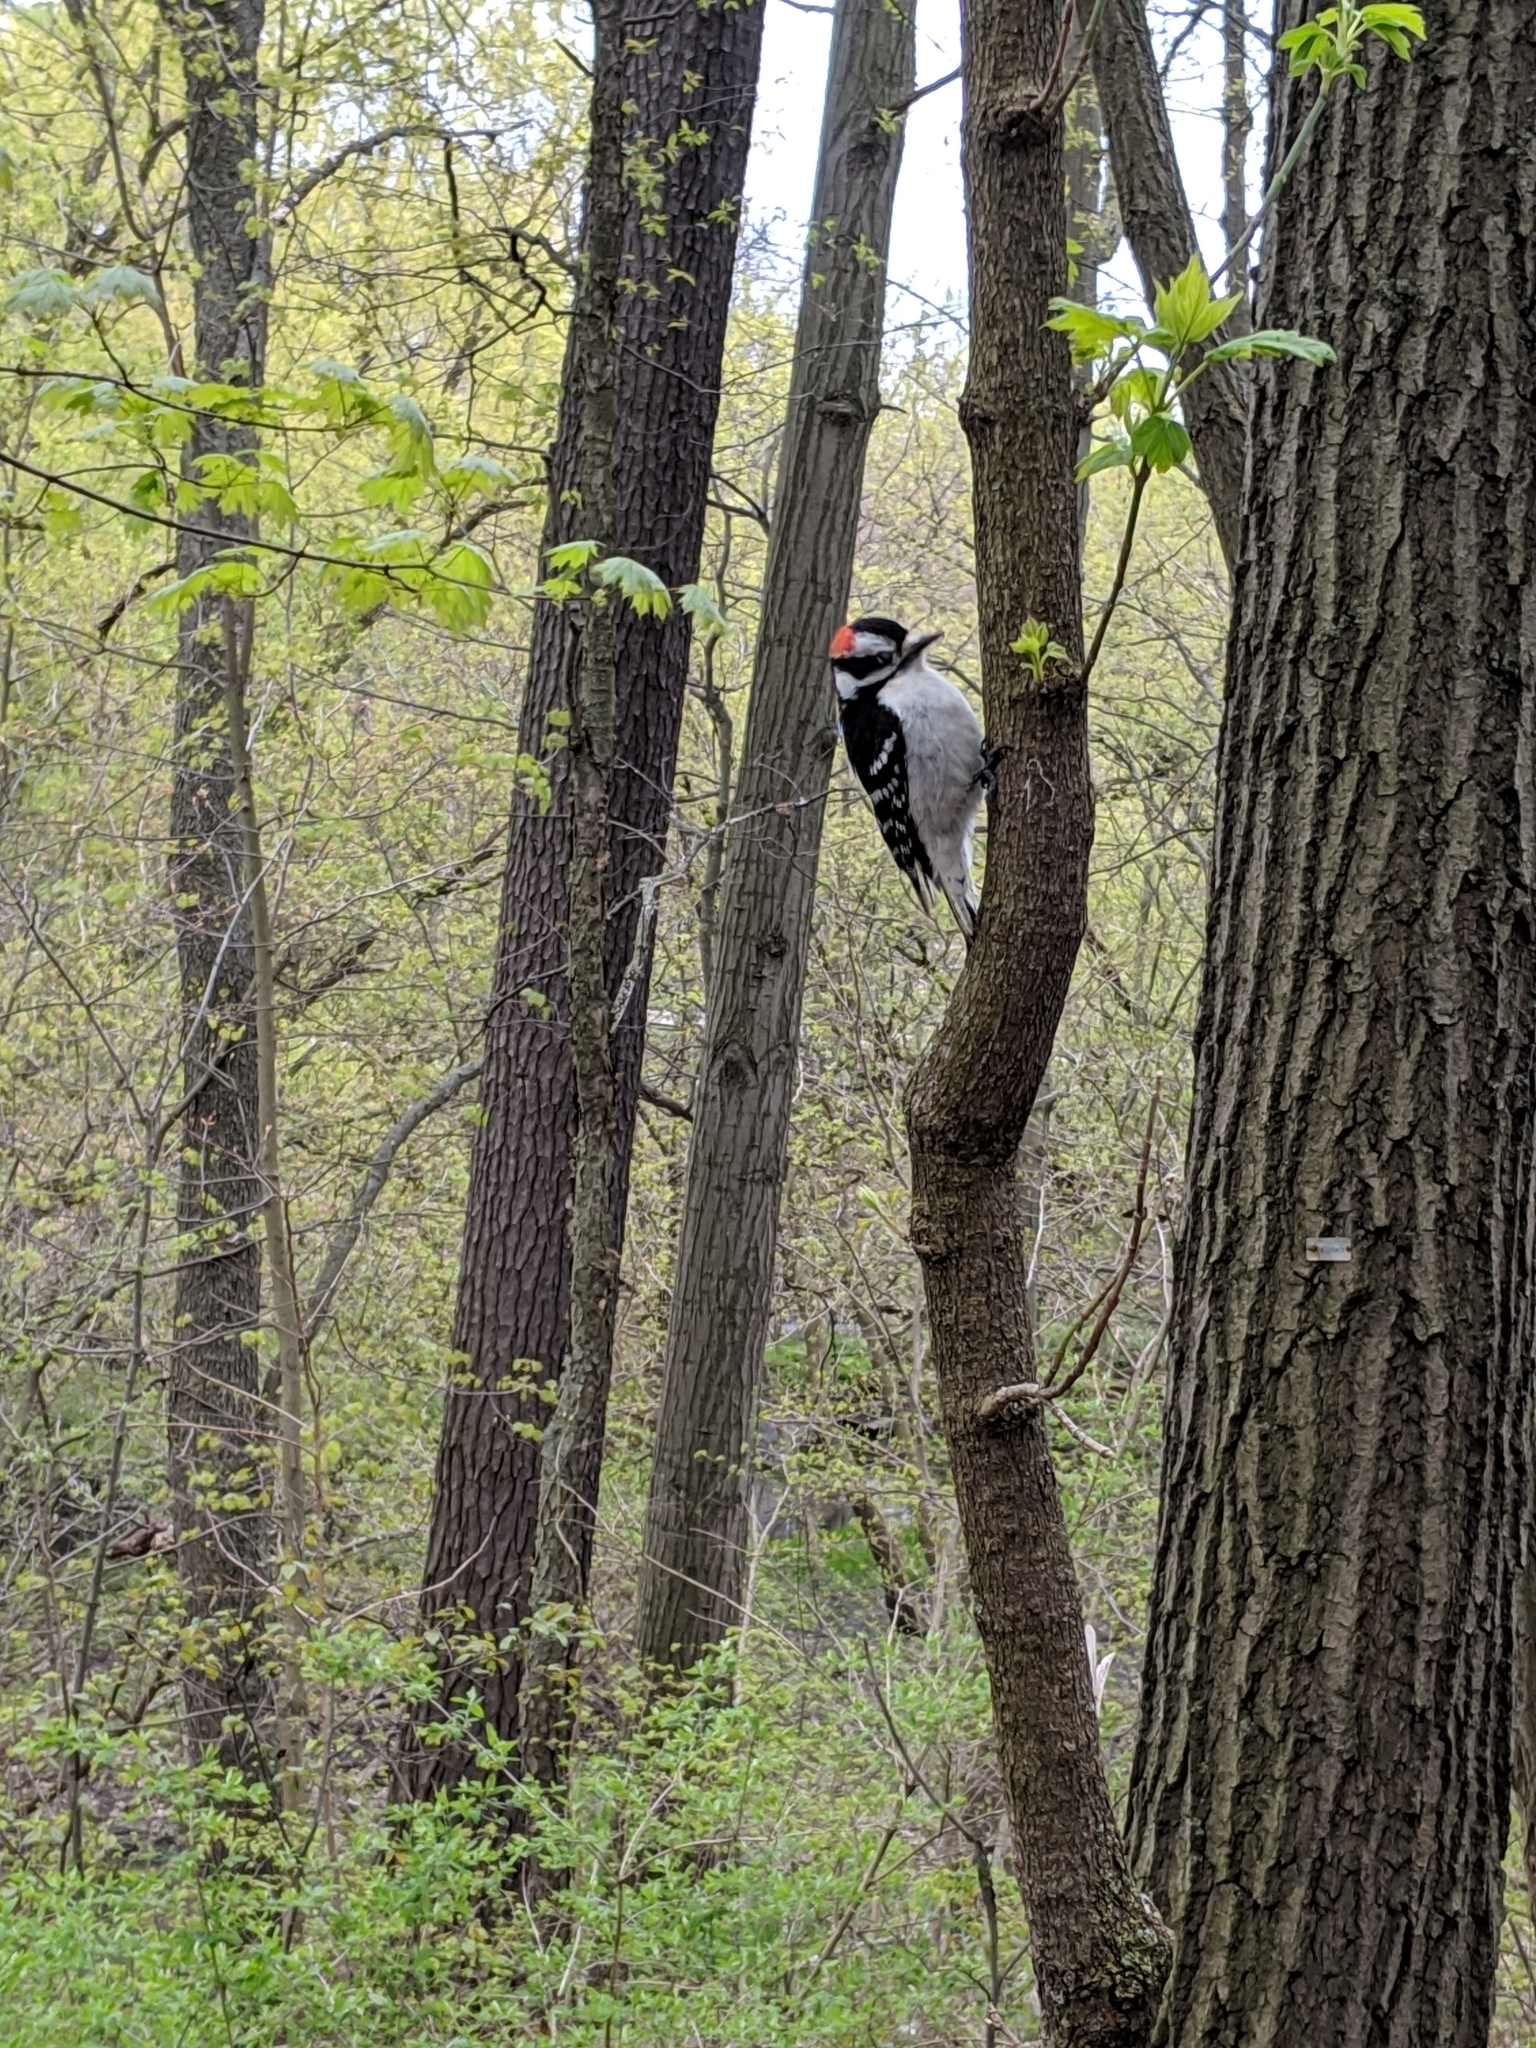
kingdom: Animalia
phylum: Chordata
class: Aves
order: Piciformes
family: Picidae
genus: Dryobates
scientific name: Dryobates pubescens
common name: Downy woodpecker
